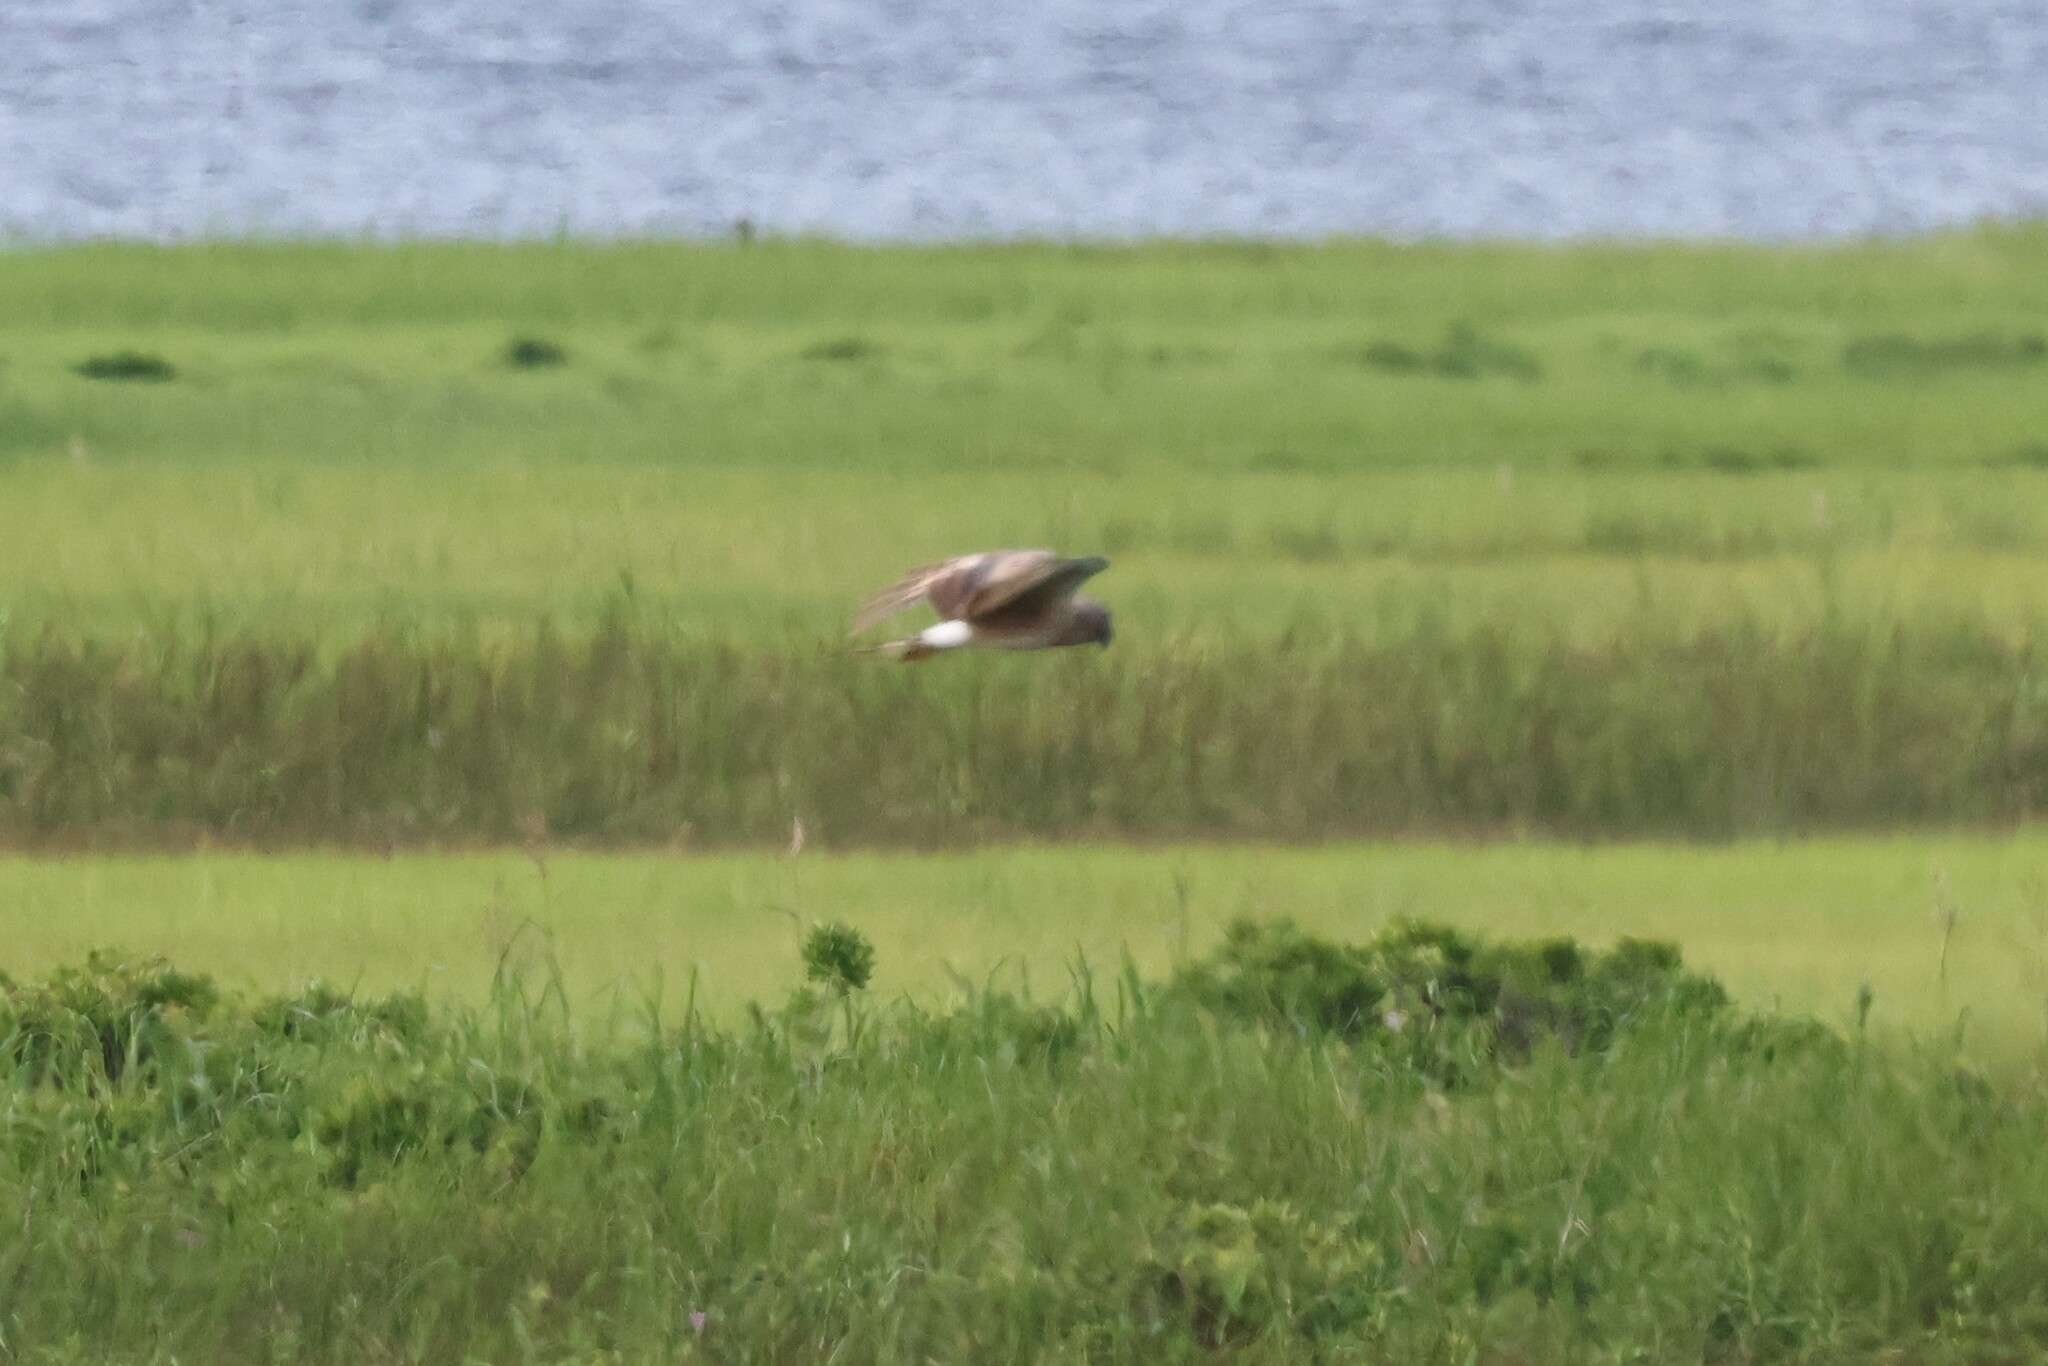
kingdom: Animalia
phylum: Chordata
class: Aves
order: Accipitriformes
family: Accipitridae
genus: Circus
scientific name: Circus cyaneus
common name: Hen harrier
